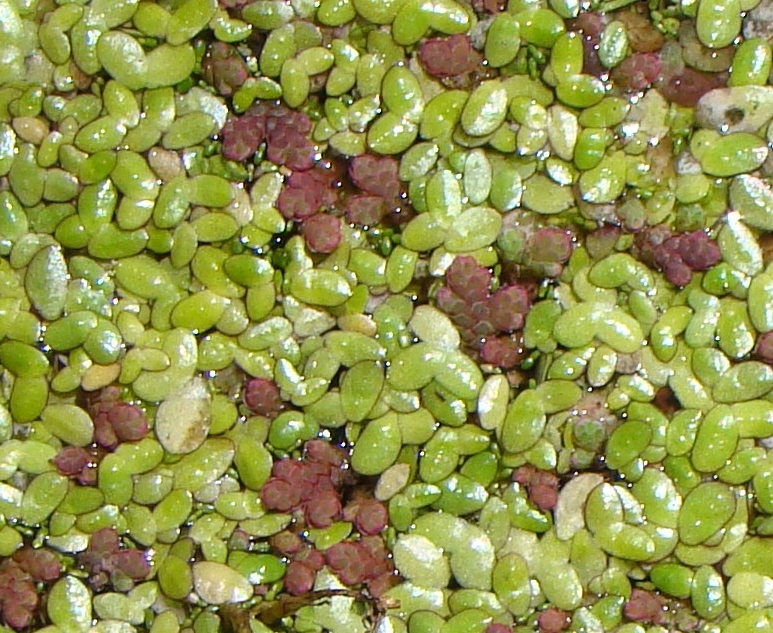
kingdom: Plantae
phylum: Tracheophyta
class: Polypodiopsida
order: Salviniales
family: Salviniaceae
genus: Azolla
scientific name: Azolla rubra
